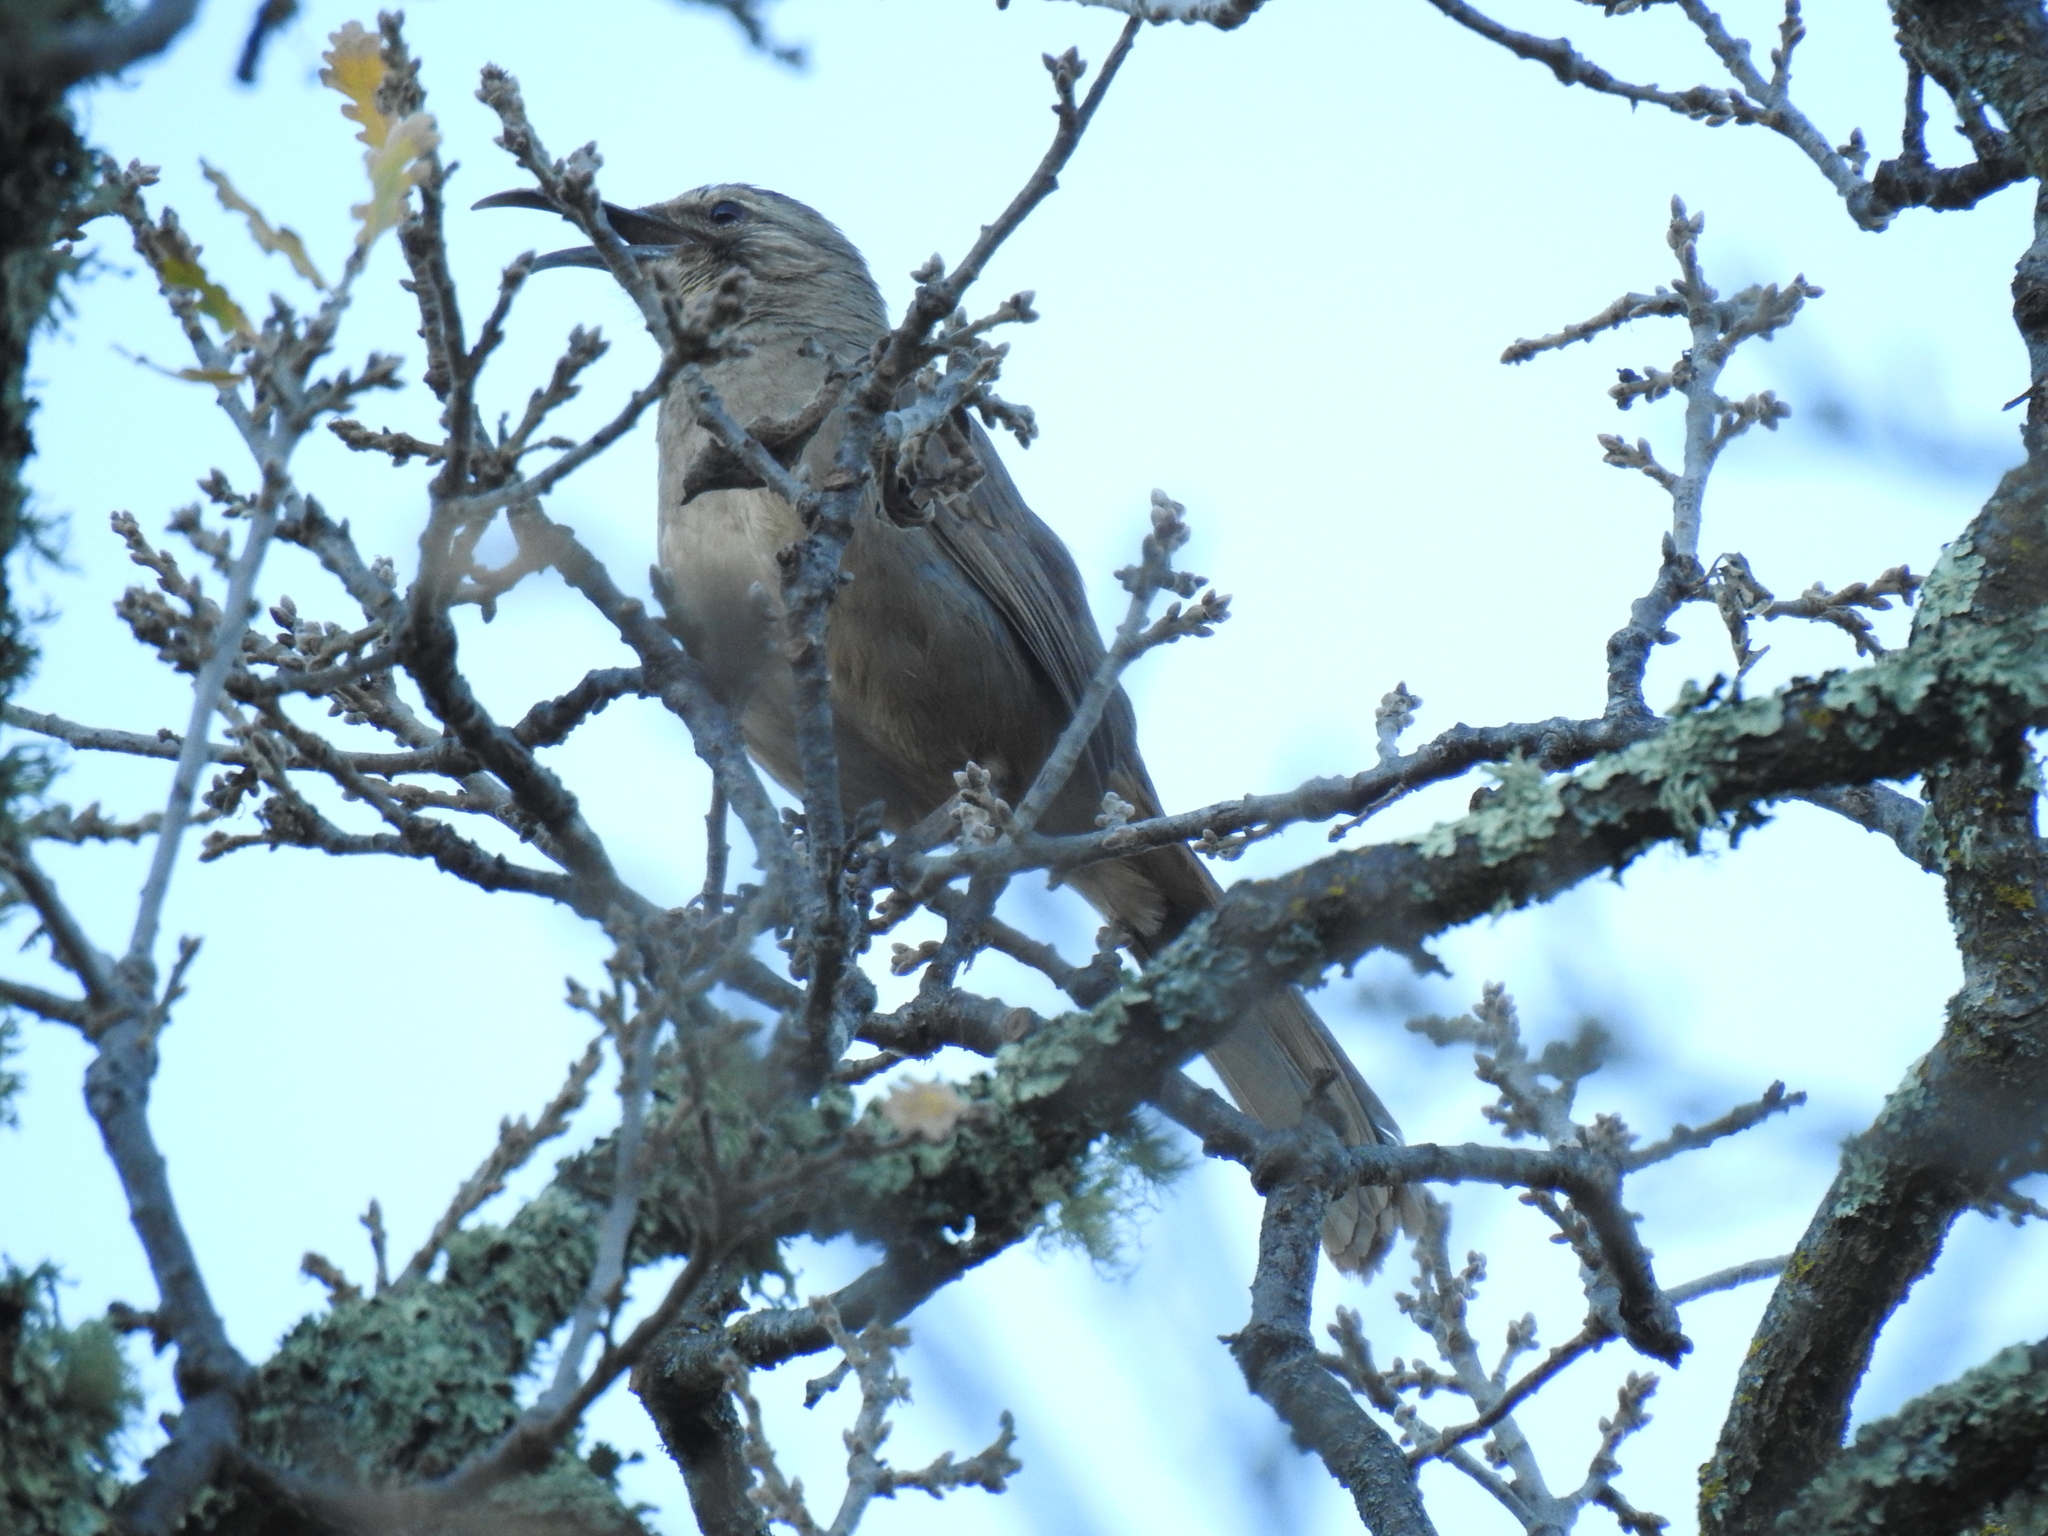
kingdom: Animalia
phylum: Chordata
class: Aves
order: Passeriformes
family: Mimidae
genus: Toxostoma
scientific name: Toxostoma redivivum
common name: California thrasher
